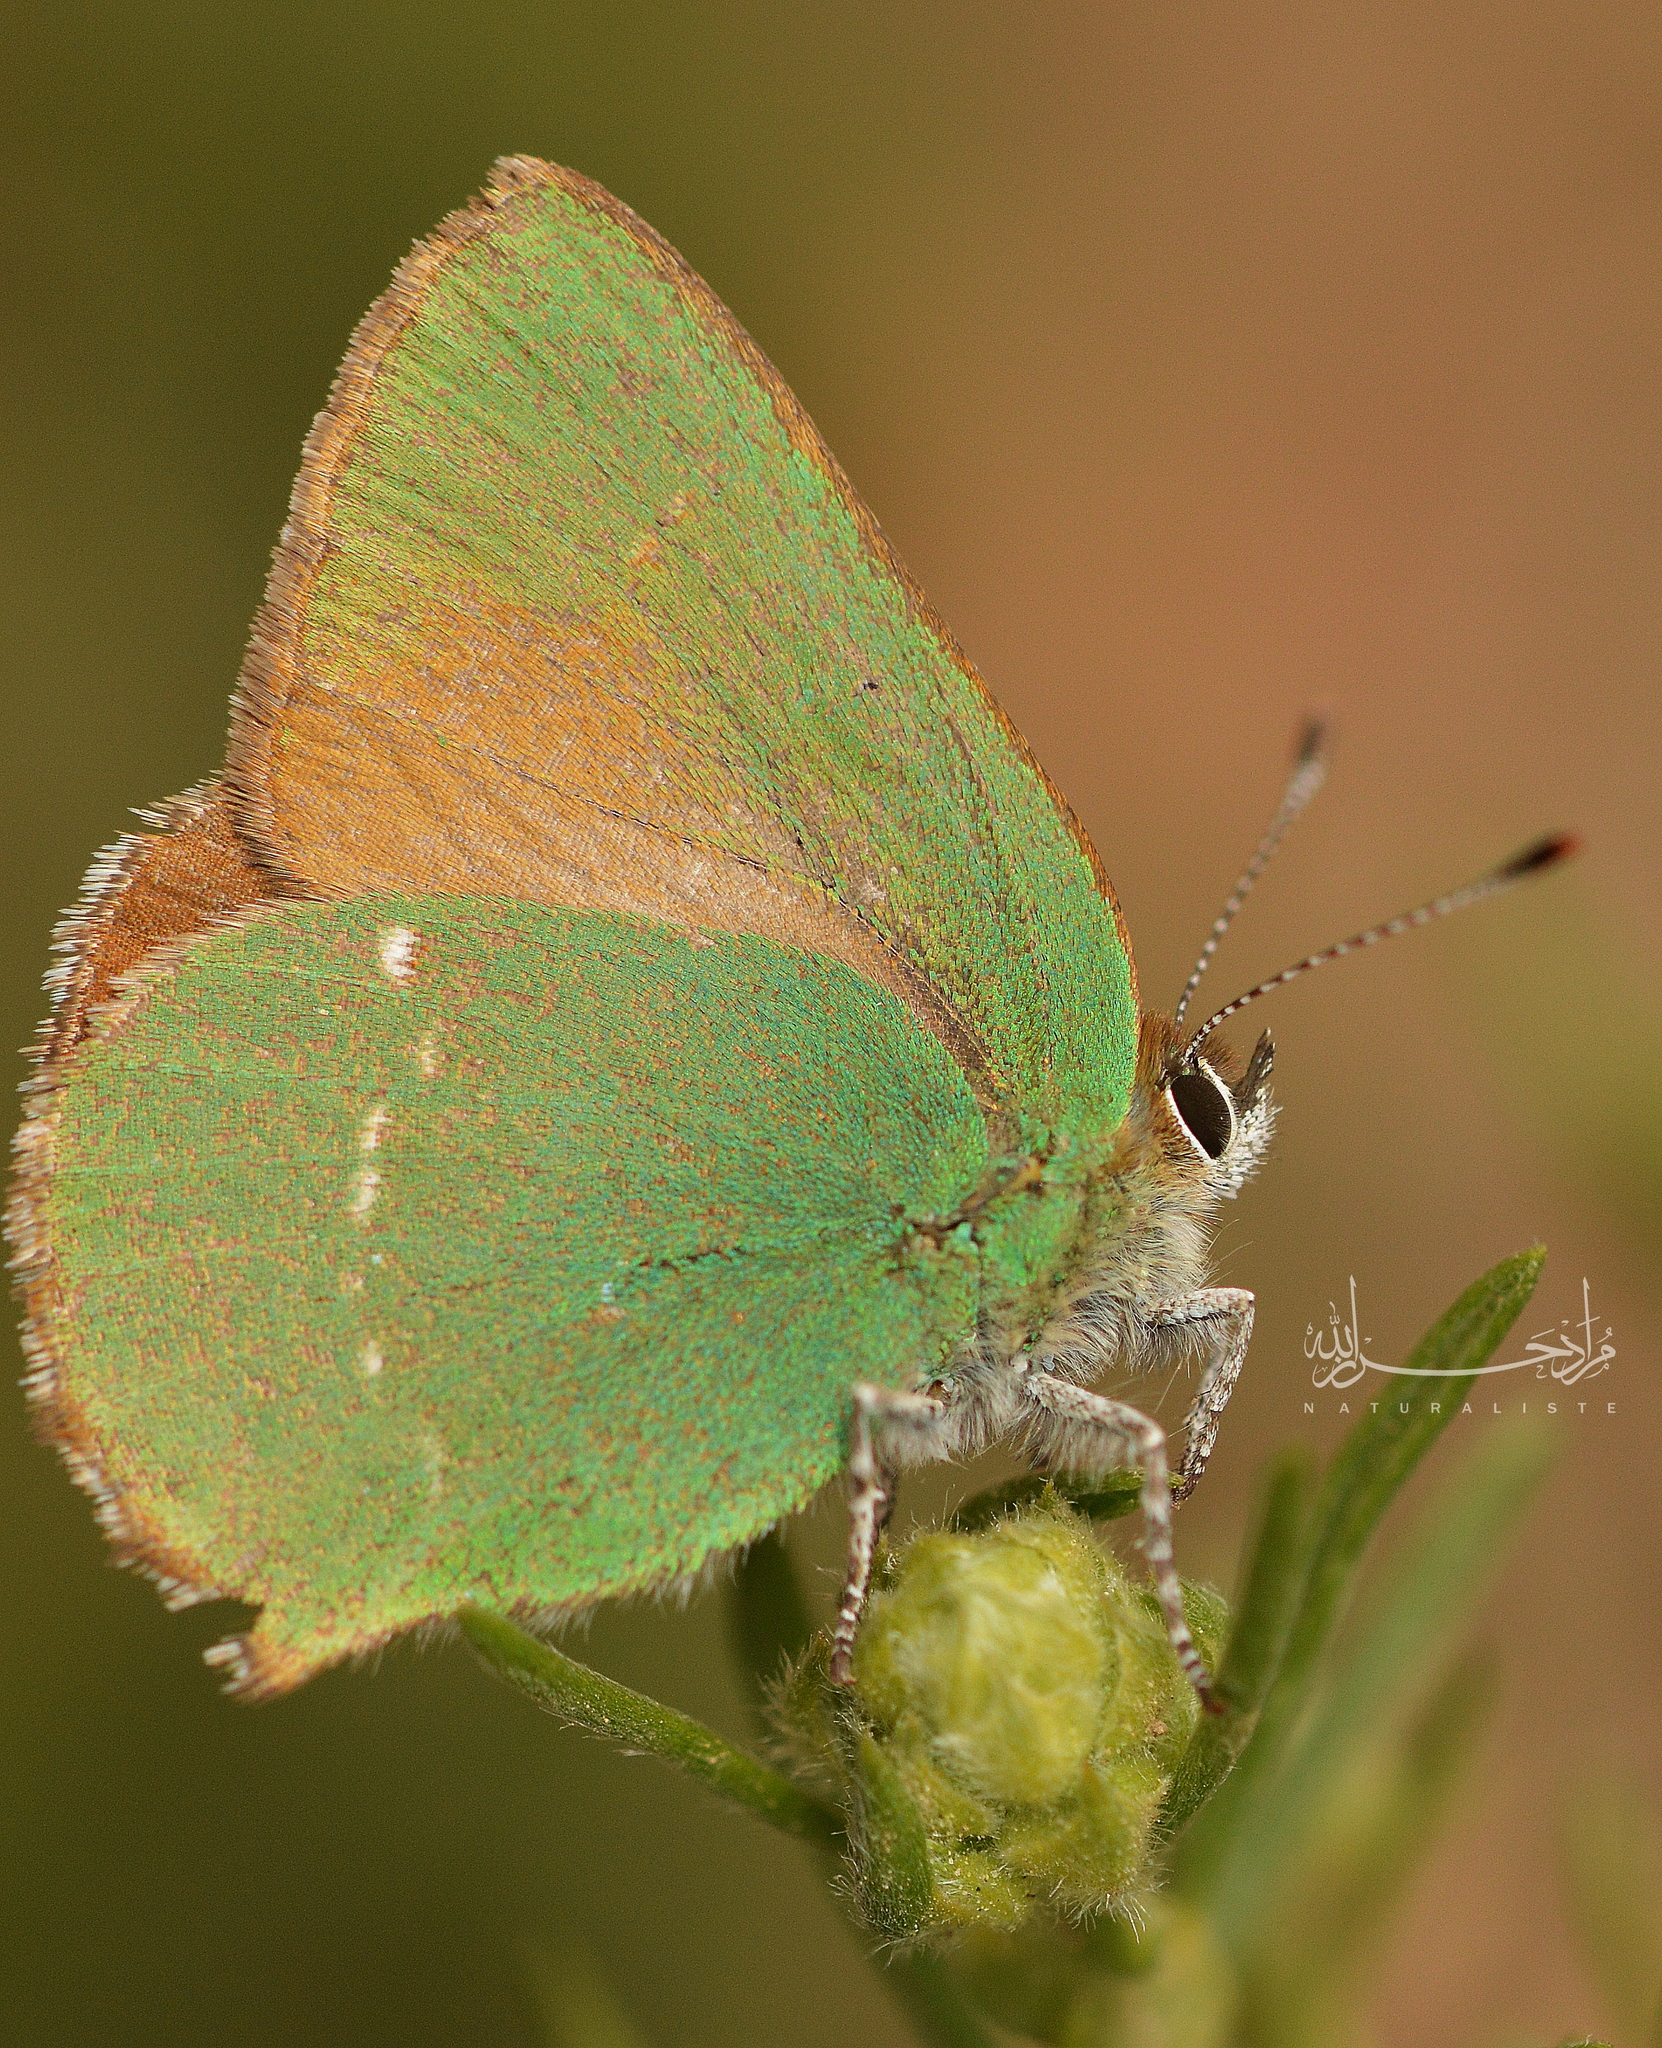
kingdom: Animalia
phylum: Arthropoda
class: Insecta
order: Lepidoptera
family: Lycaenidae
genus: Callophrys
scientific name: Callophrys rubi
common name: Green hairstreak
